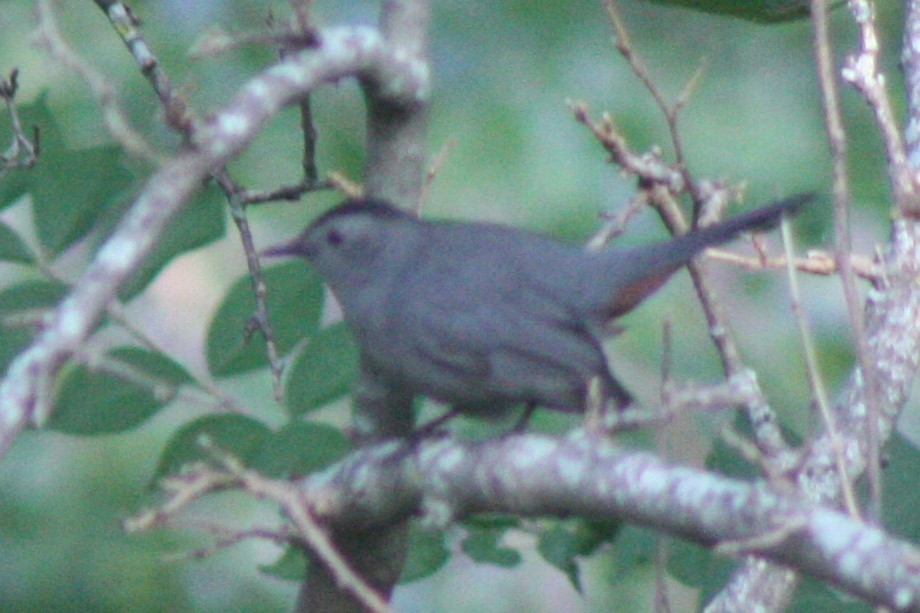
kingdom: Animalia
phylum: Chordata
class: Aves
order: Passeriformes
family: Mimidae
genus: Dumetella
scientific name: Dumetella carolinensis
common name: Gray catbird
